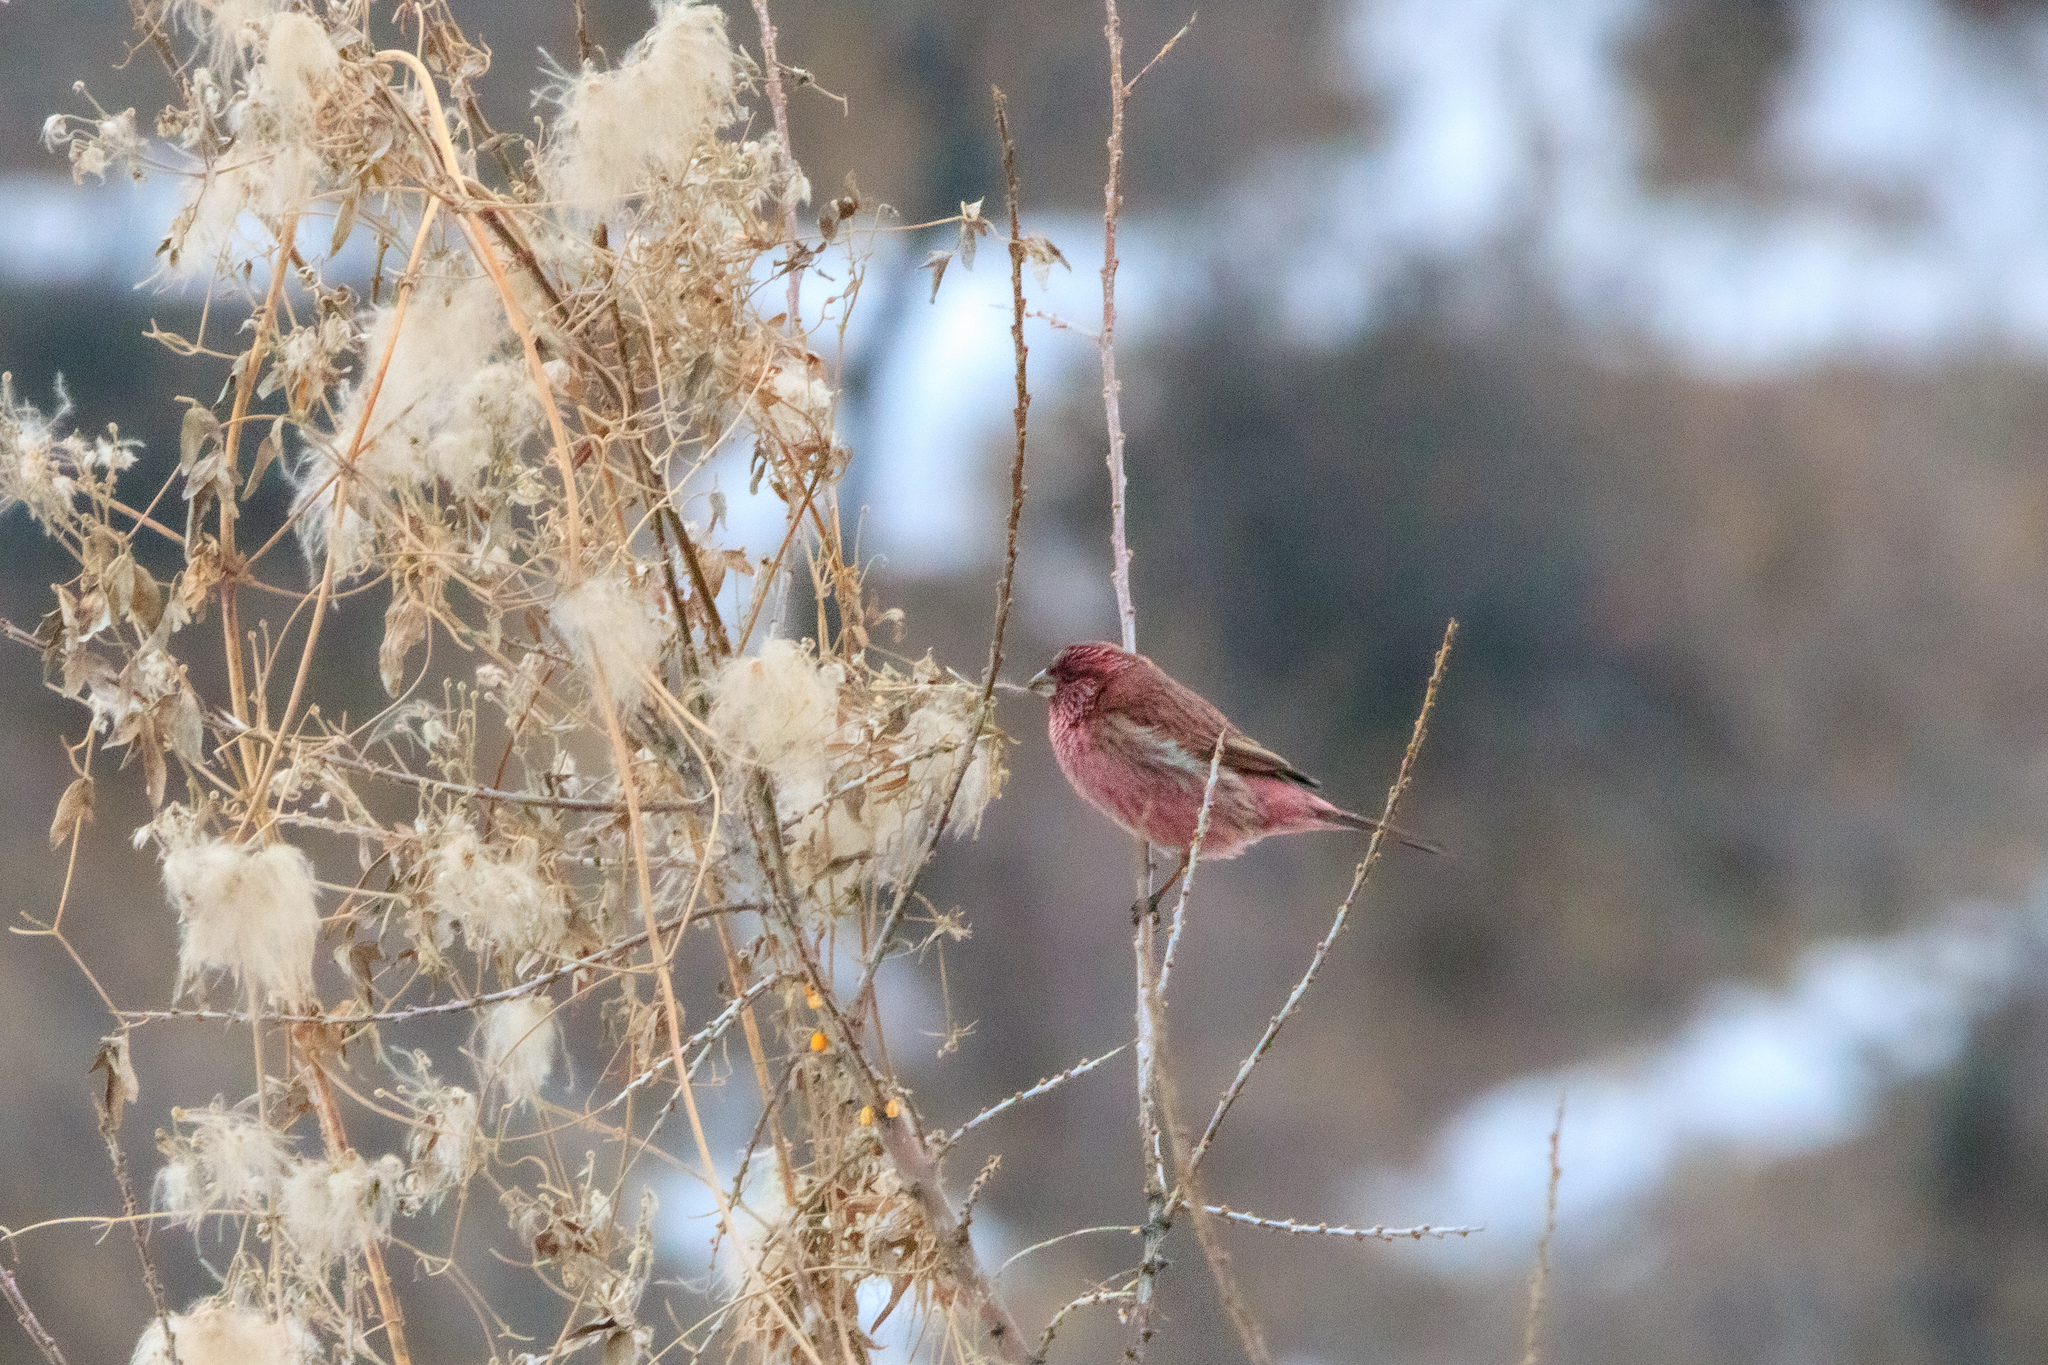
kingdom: Animalia
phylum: Chordata
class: Aves
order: Passeriformes
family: Fringillidae
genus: Carpodacus
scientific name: Carpodacus sibiricus
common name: Long-tailed rosefinch
